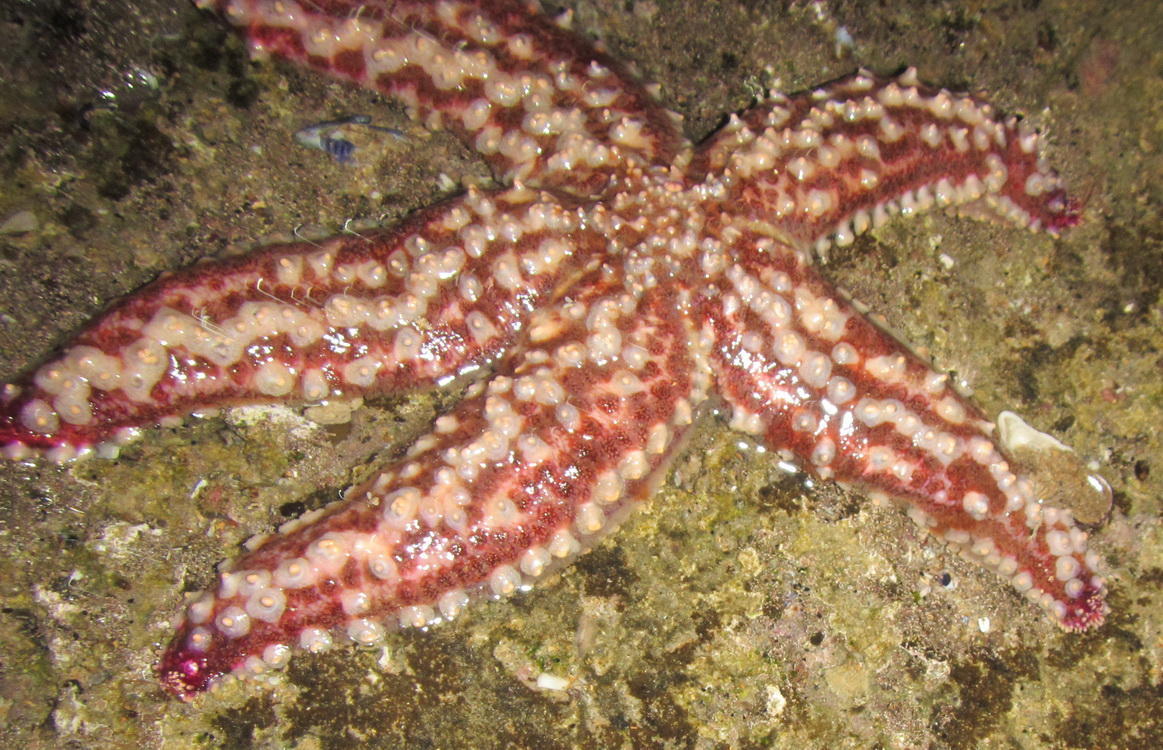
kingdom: Animalia
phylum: Echinodermata
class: Asteroidea
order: Forcipulatida
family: Asteriidae
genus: Marthasterias
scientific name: Marthasterias africana
